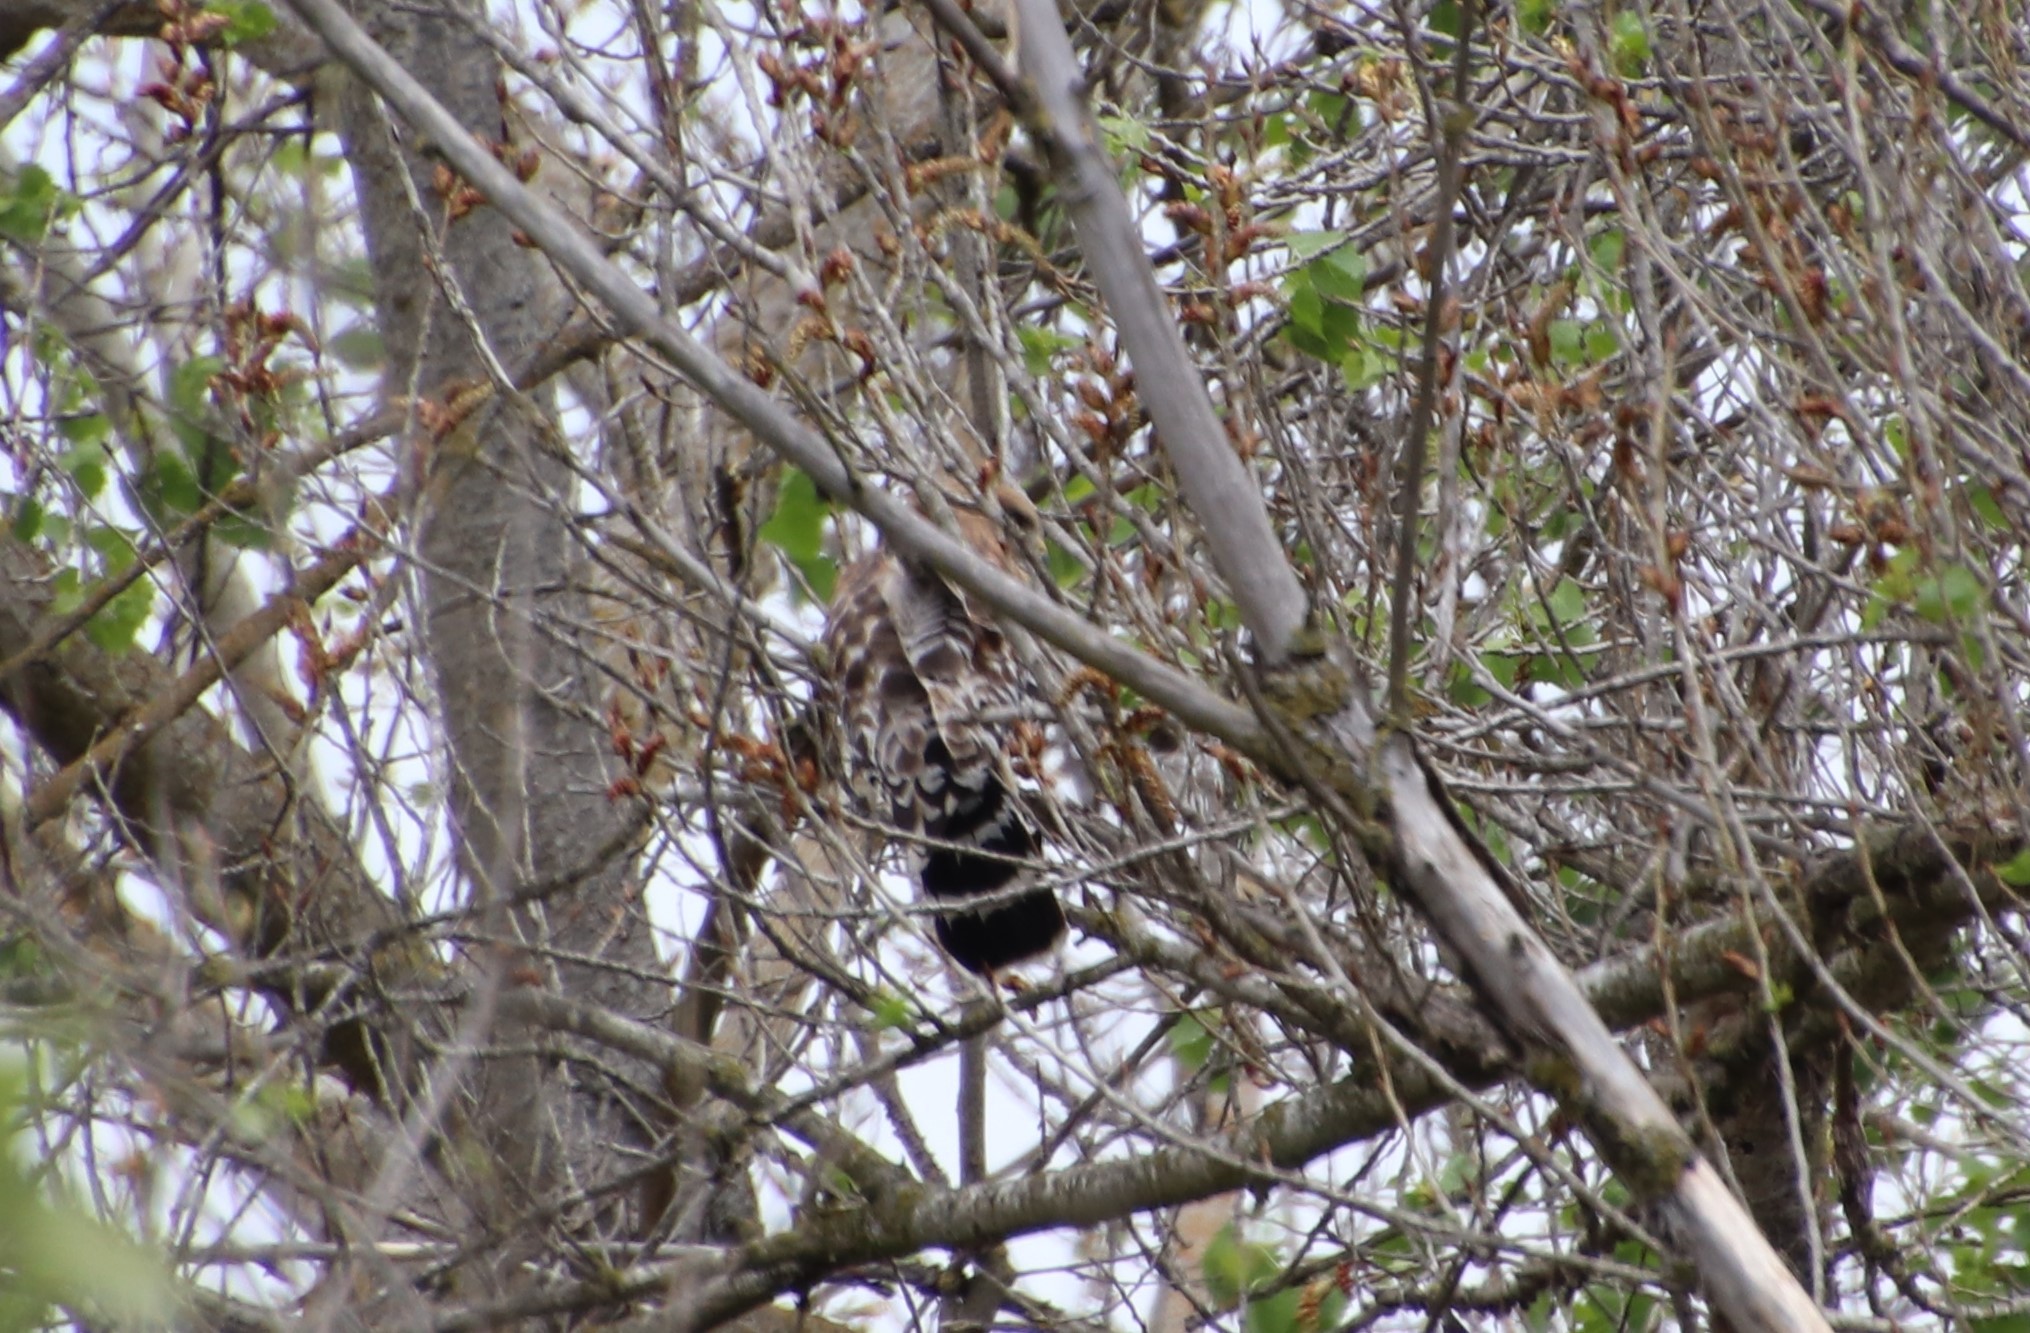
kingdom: Animalia
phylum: Chordata
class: Aves
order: Accipitriformes
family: Accipitridae
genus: Buteo
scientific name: Buteo lineatus
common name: Red-shouldered hawk
